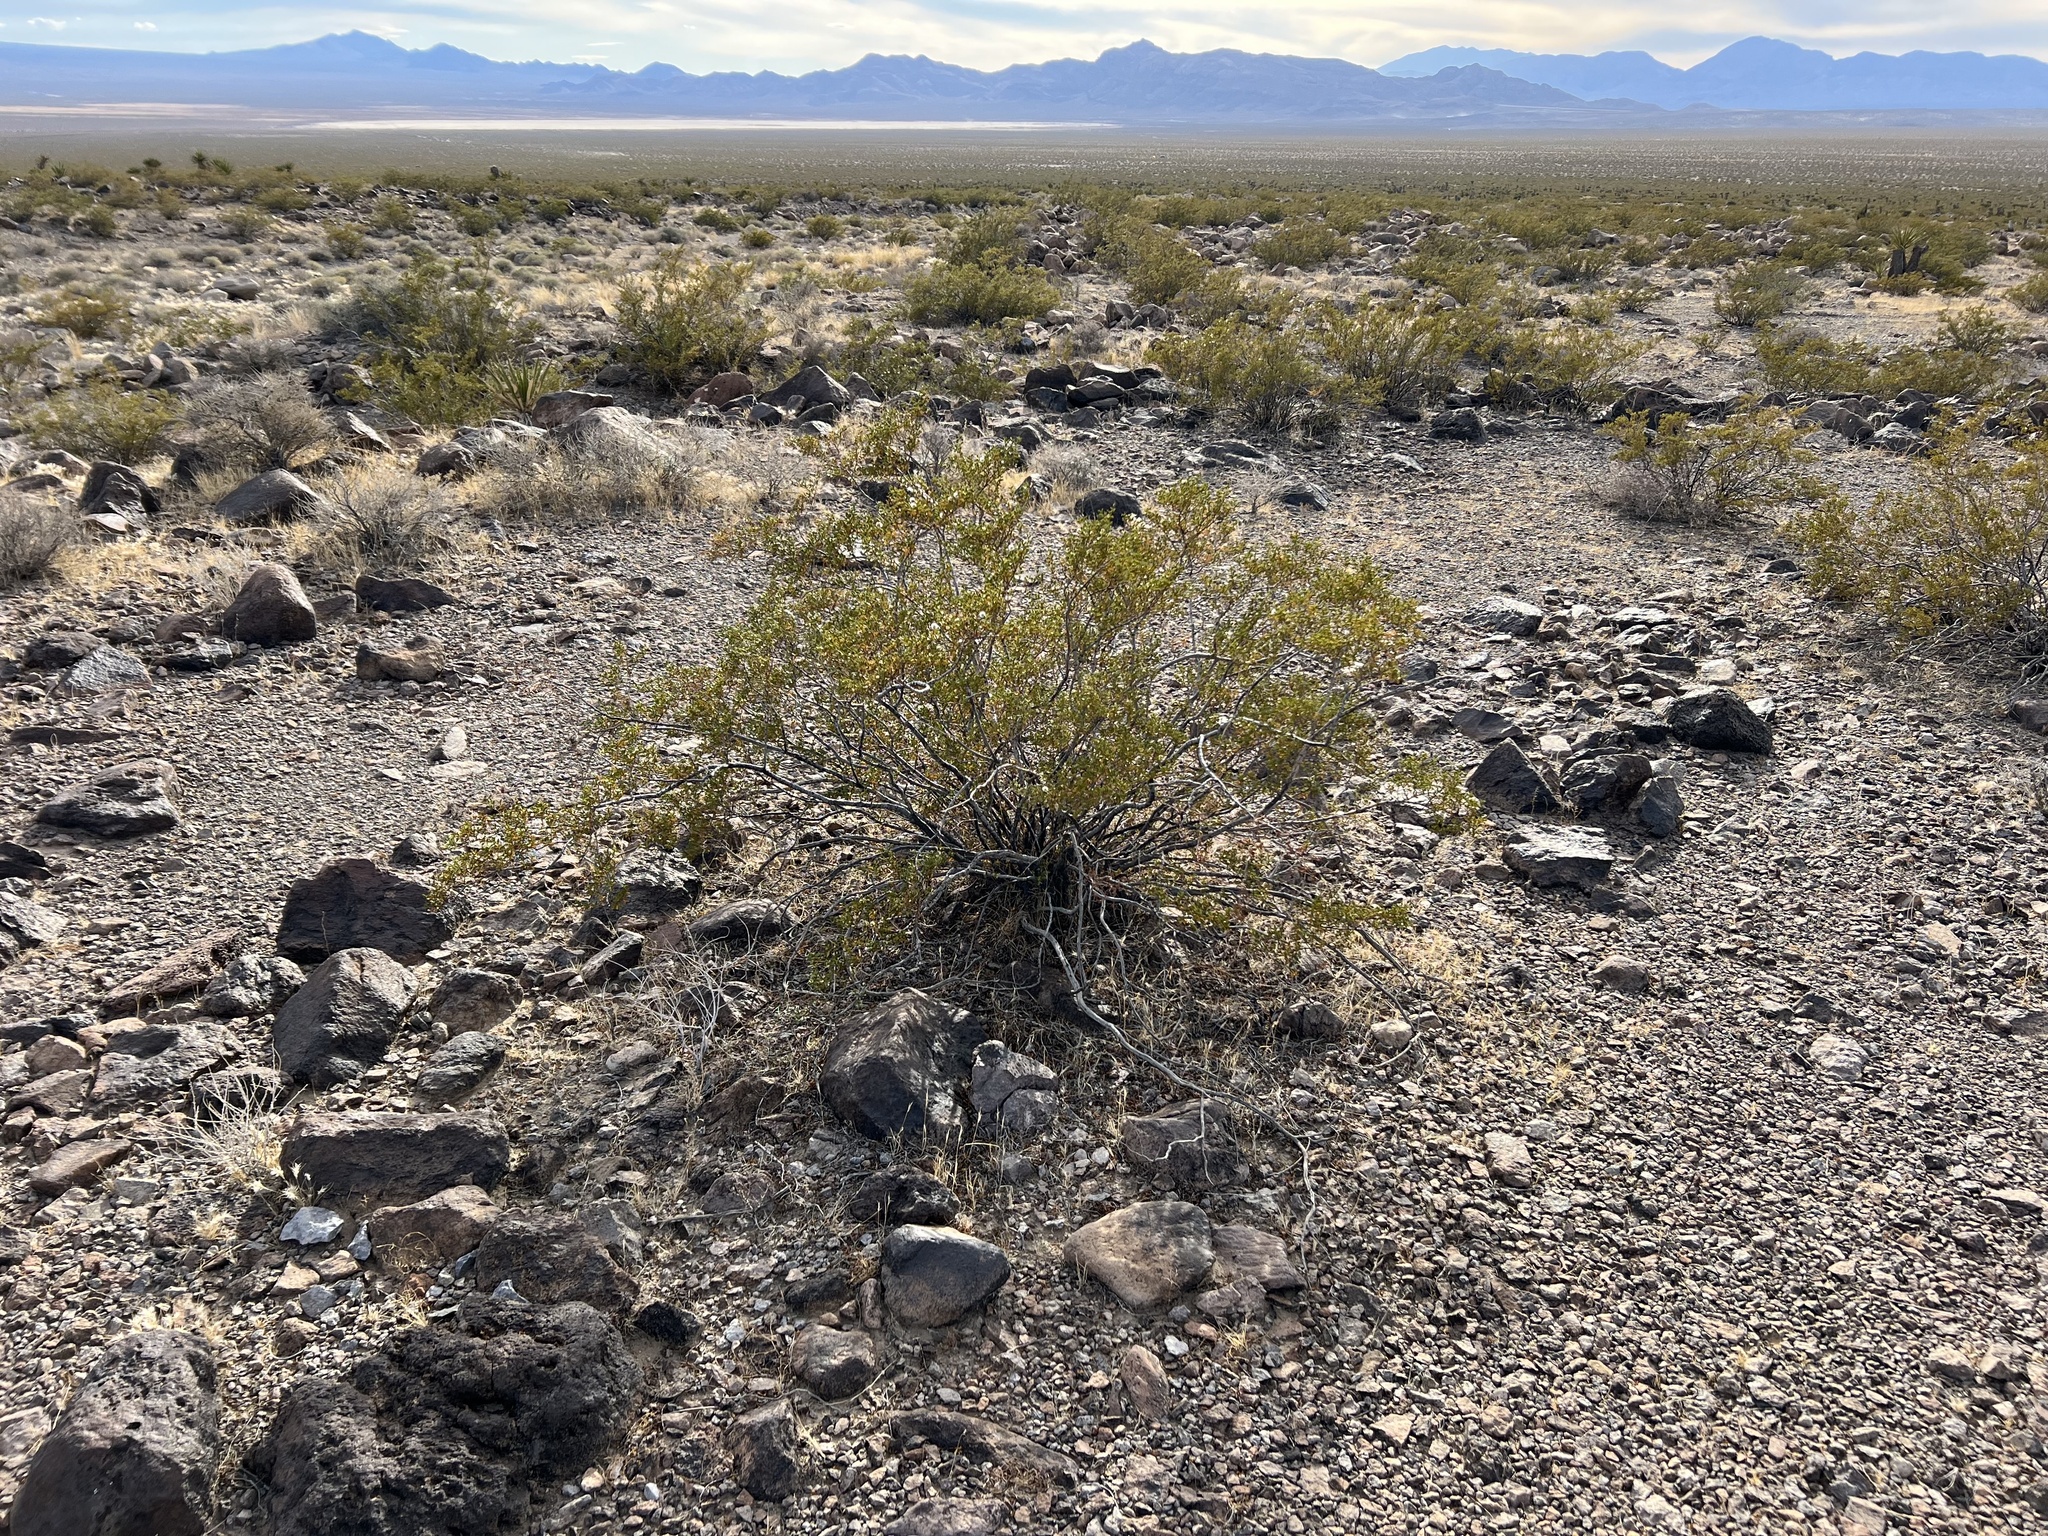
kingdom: Plantae
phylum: Tracheophyta
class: Magnoliopsida
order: Zygophyllales
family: Zygophyllaceae
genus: Larrea
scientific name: Larrea tridentata
